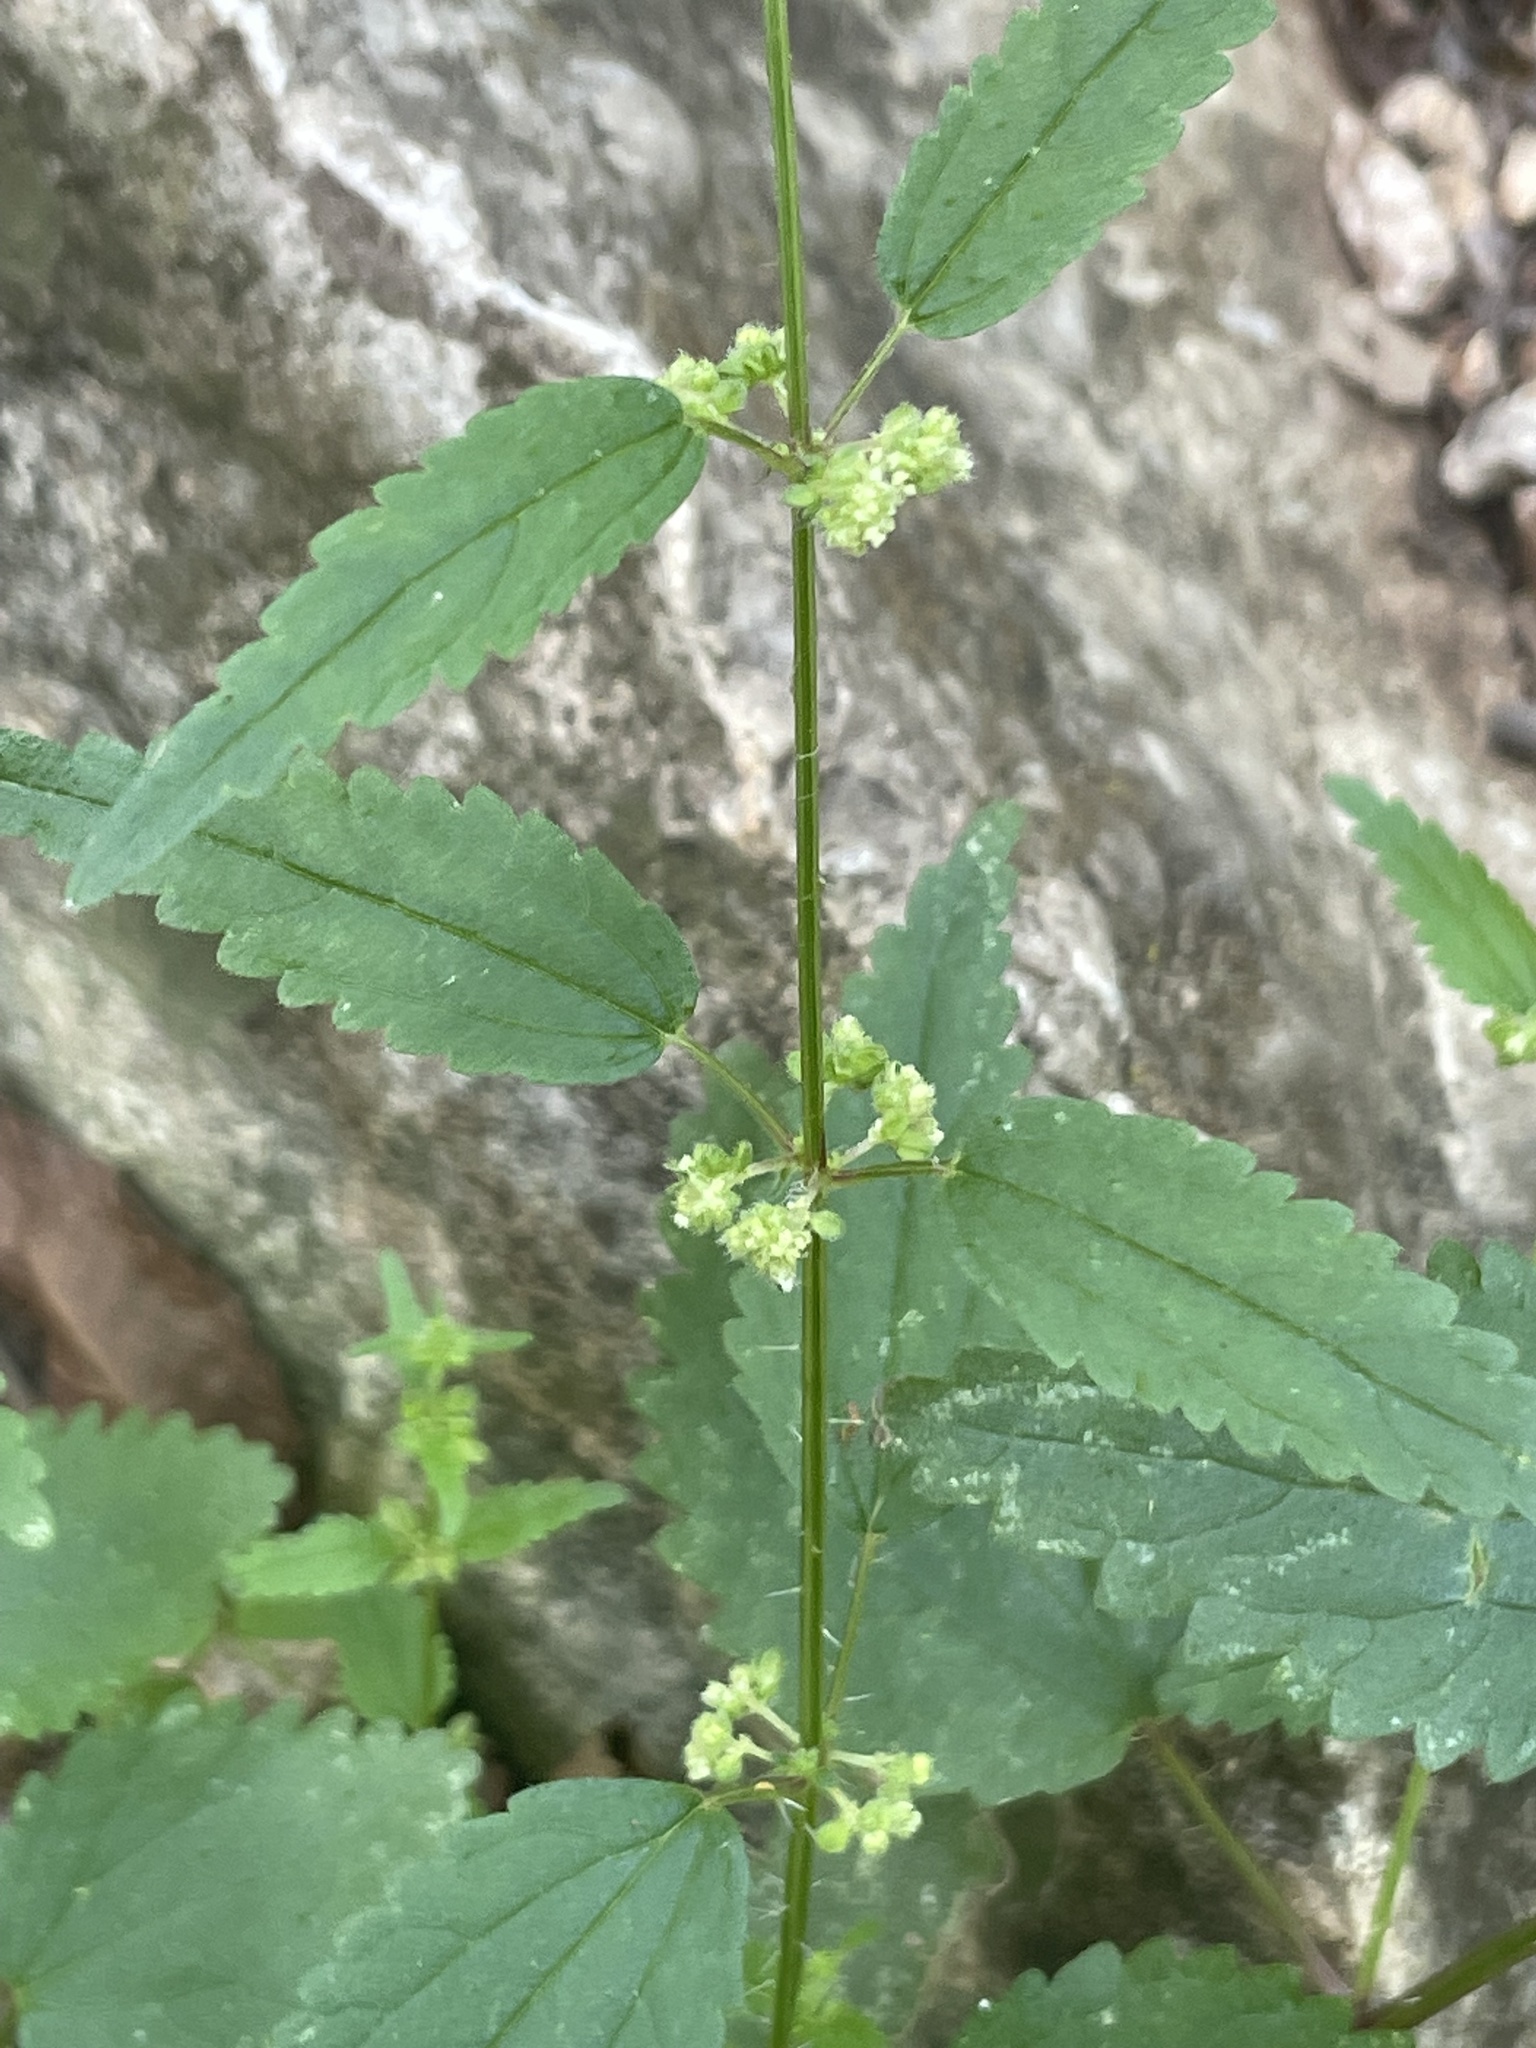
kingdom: Plantae
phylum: Tracheophyta
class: Magnoliopsida
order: Rosales
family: Urticaceae
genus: Urtica
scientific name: Urtica chamaedryoides
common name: Heart-leaf nettle
